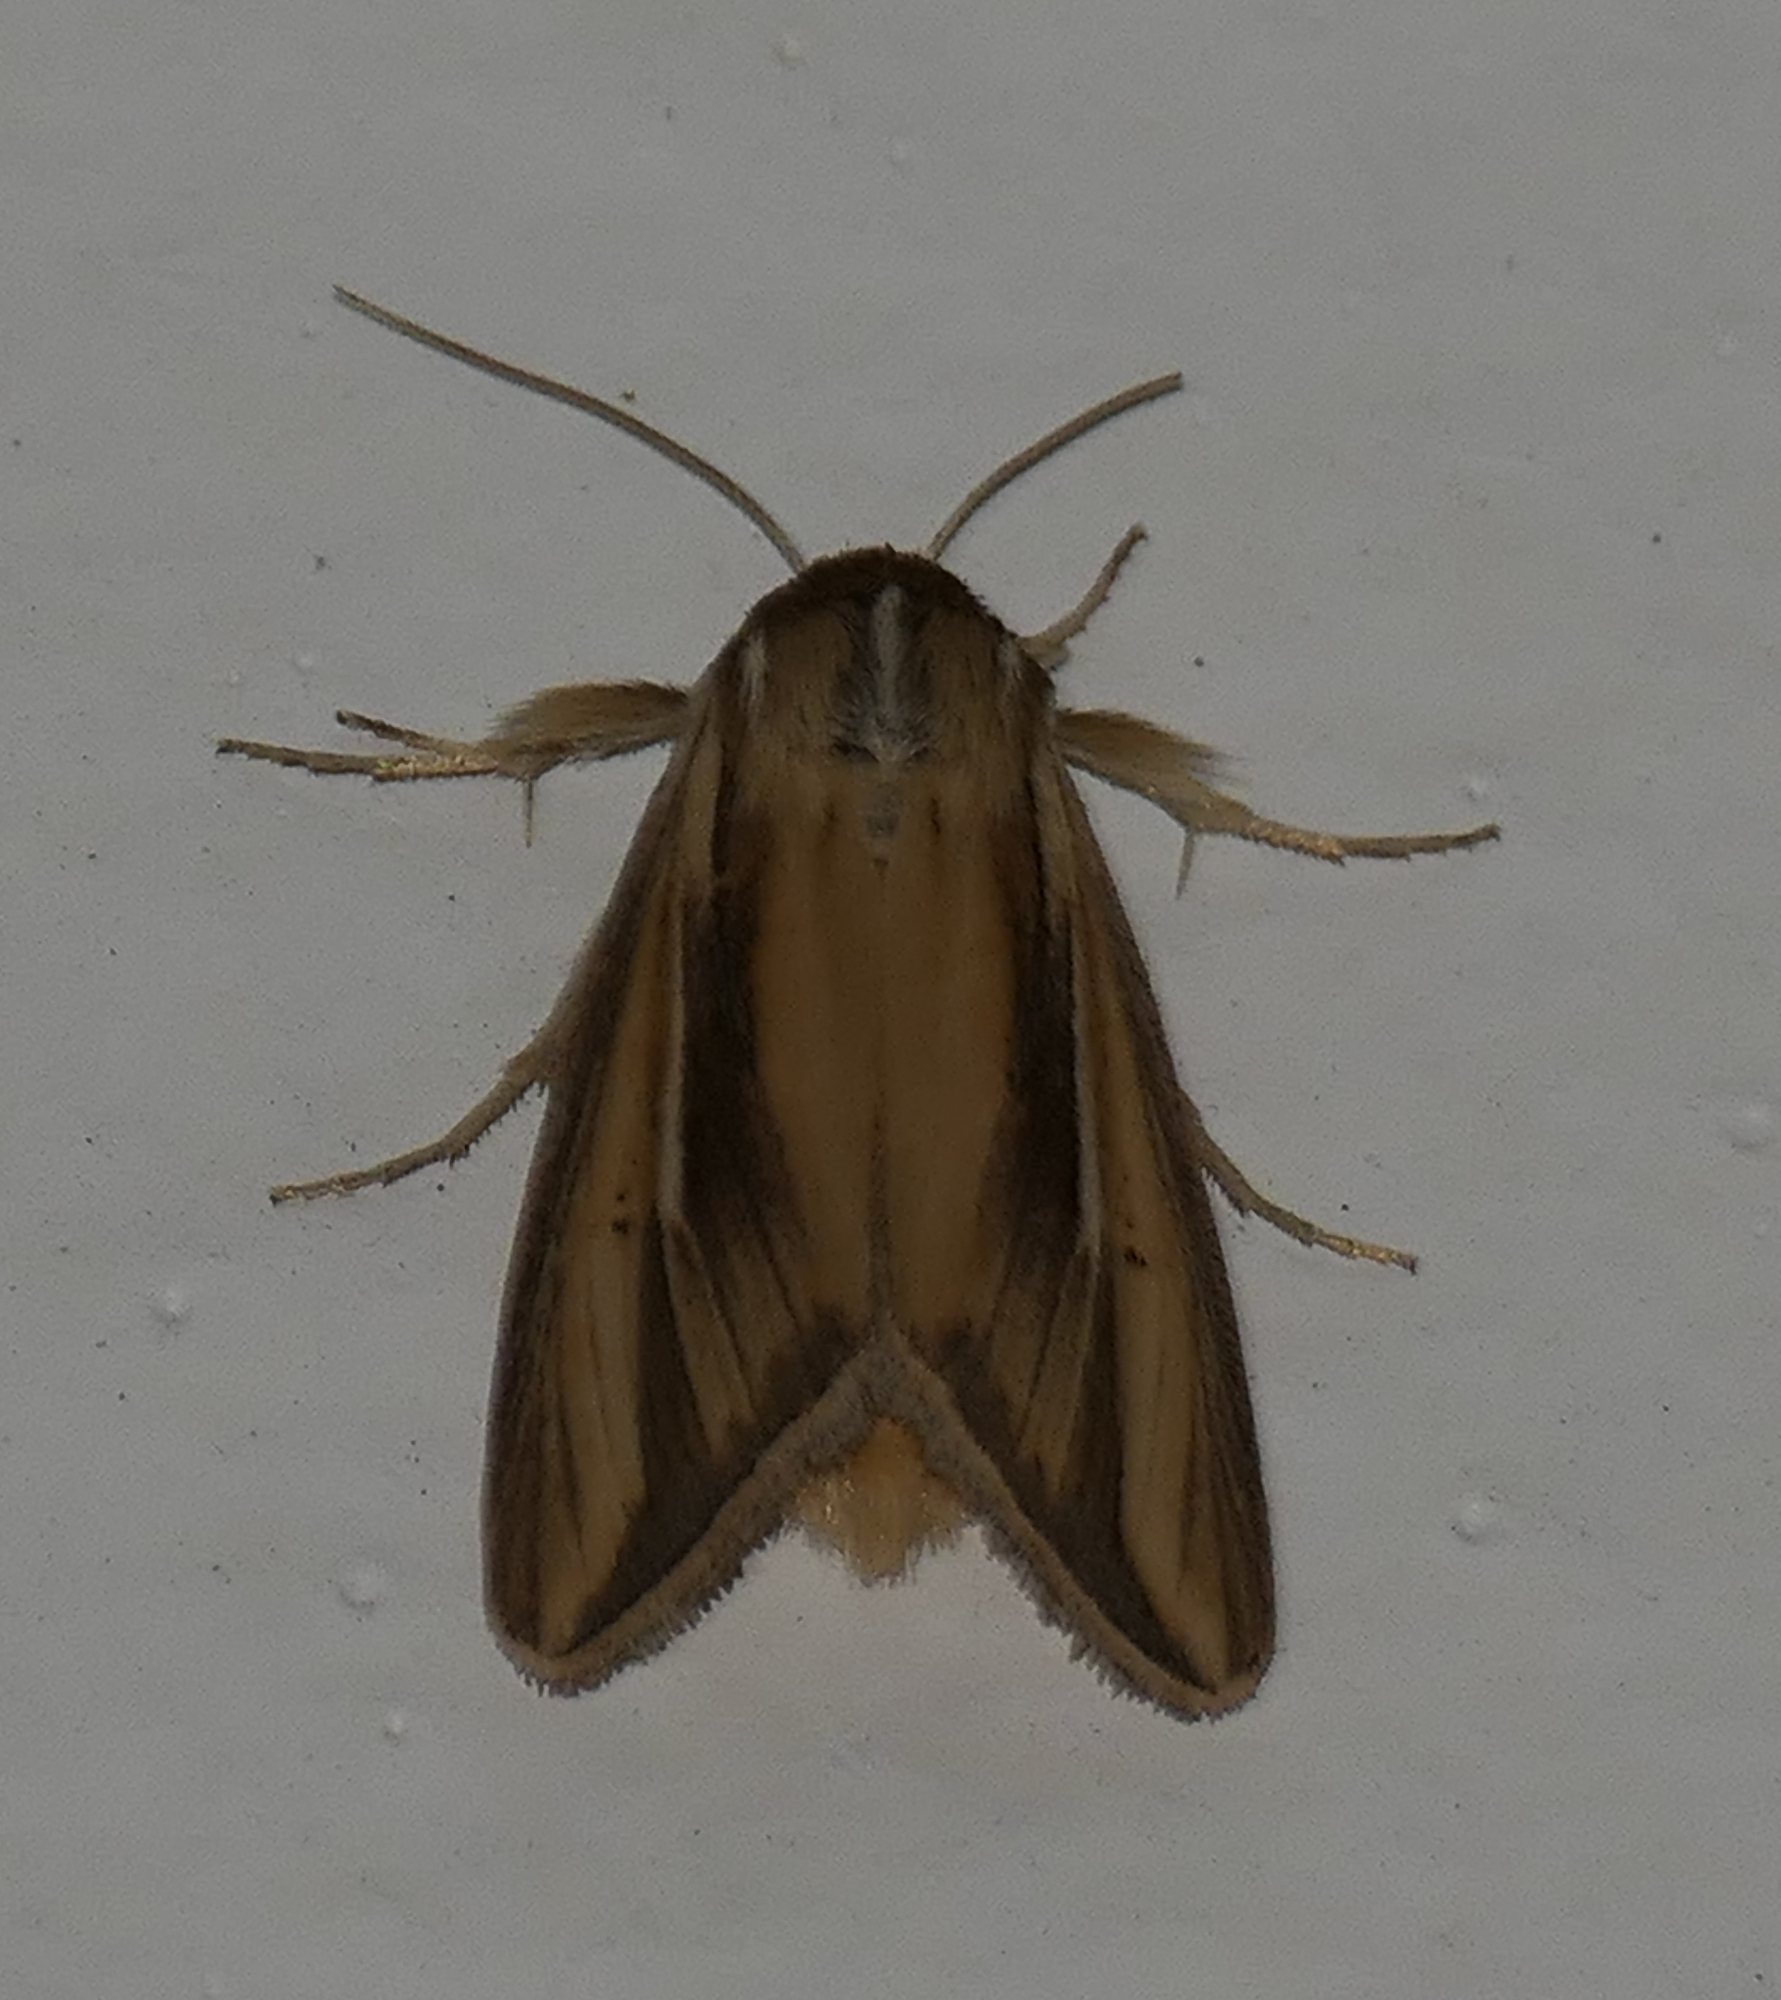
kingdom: Animalia
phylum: Arthropoda
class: Insecta
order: Lepidoptera
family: Noctuidae
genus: Dargida
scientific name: Dargida diffusa
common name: Wheat head armyworm
